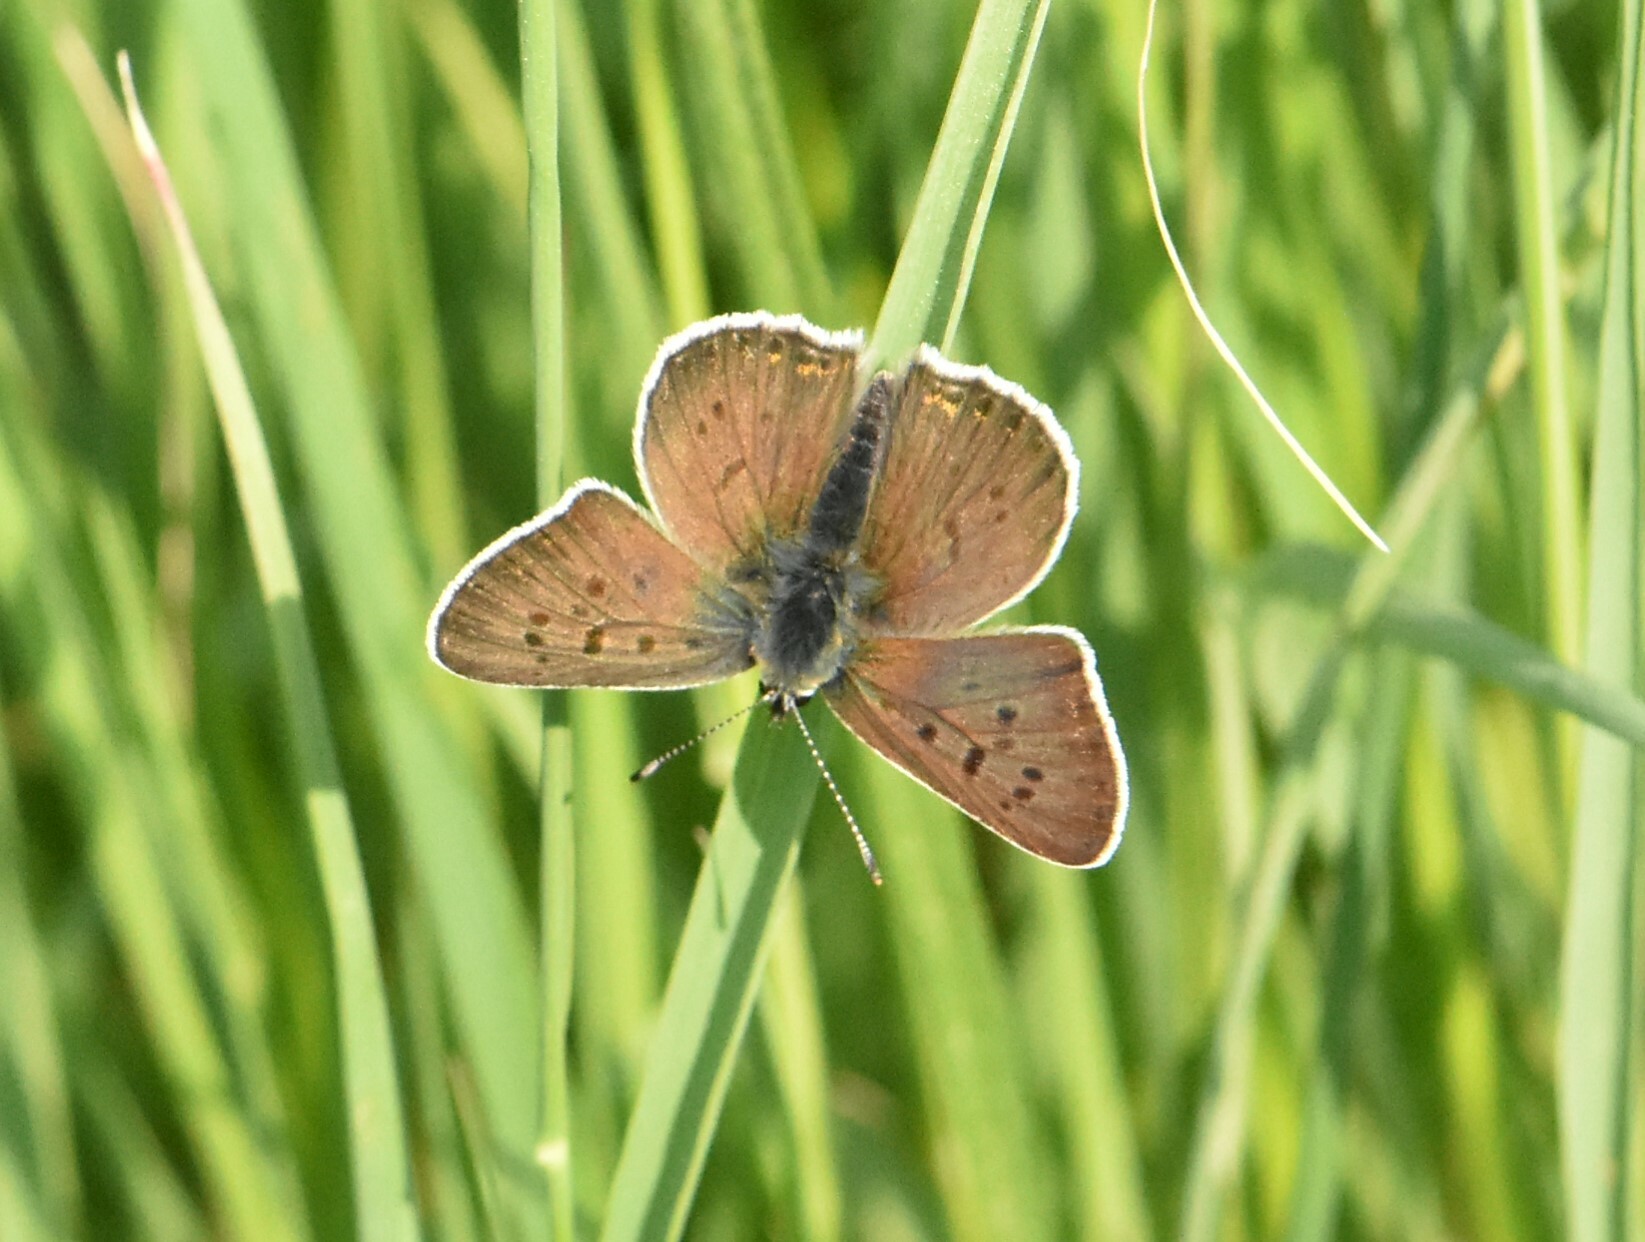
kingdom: Animalia
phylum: Arthropoda
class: Insecta
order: Lepidoptera
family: Lycaenidae
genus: Loweia
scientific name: Loweia tityrus
